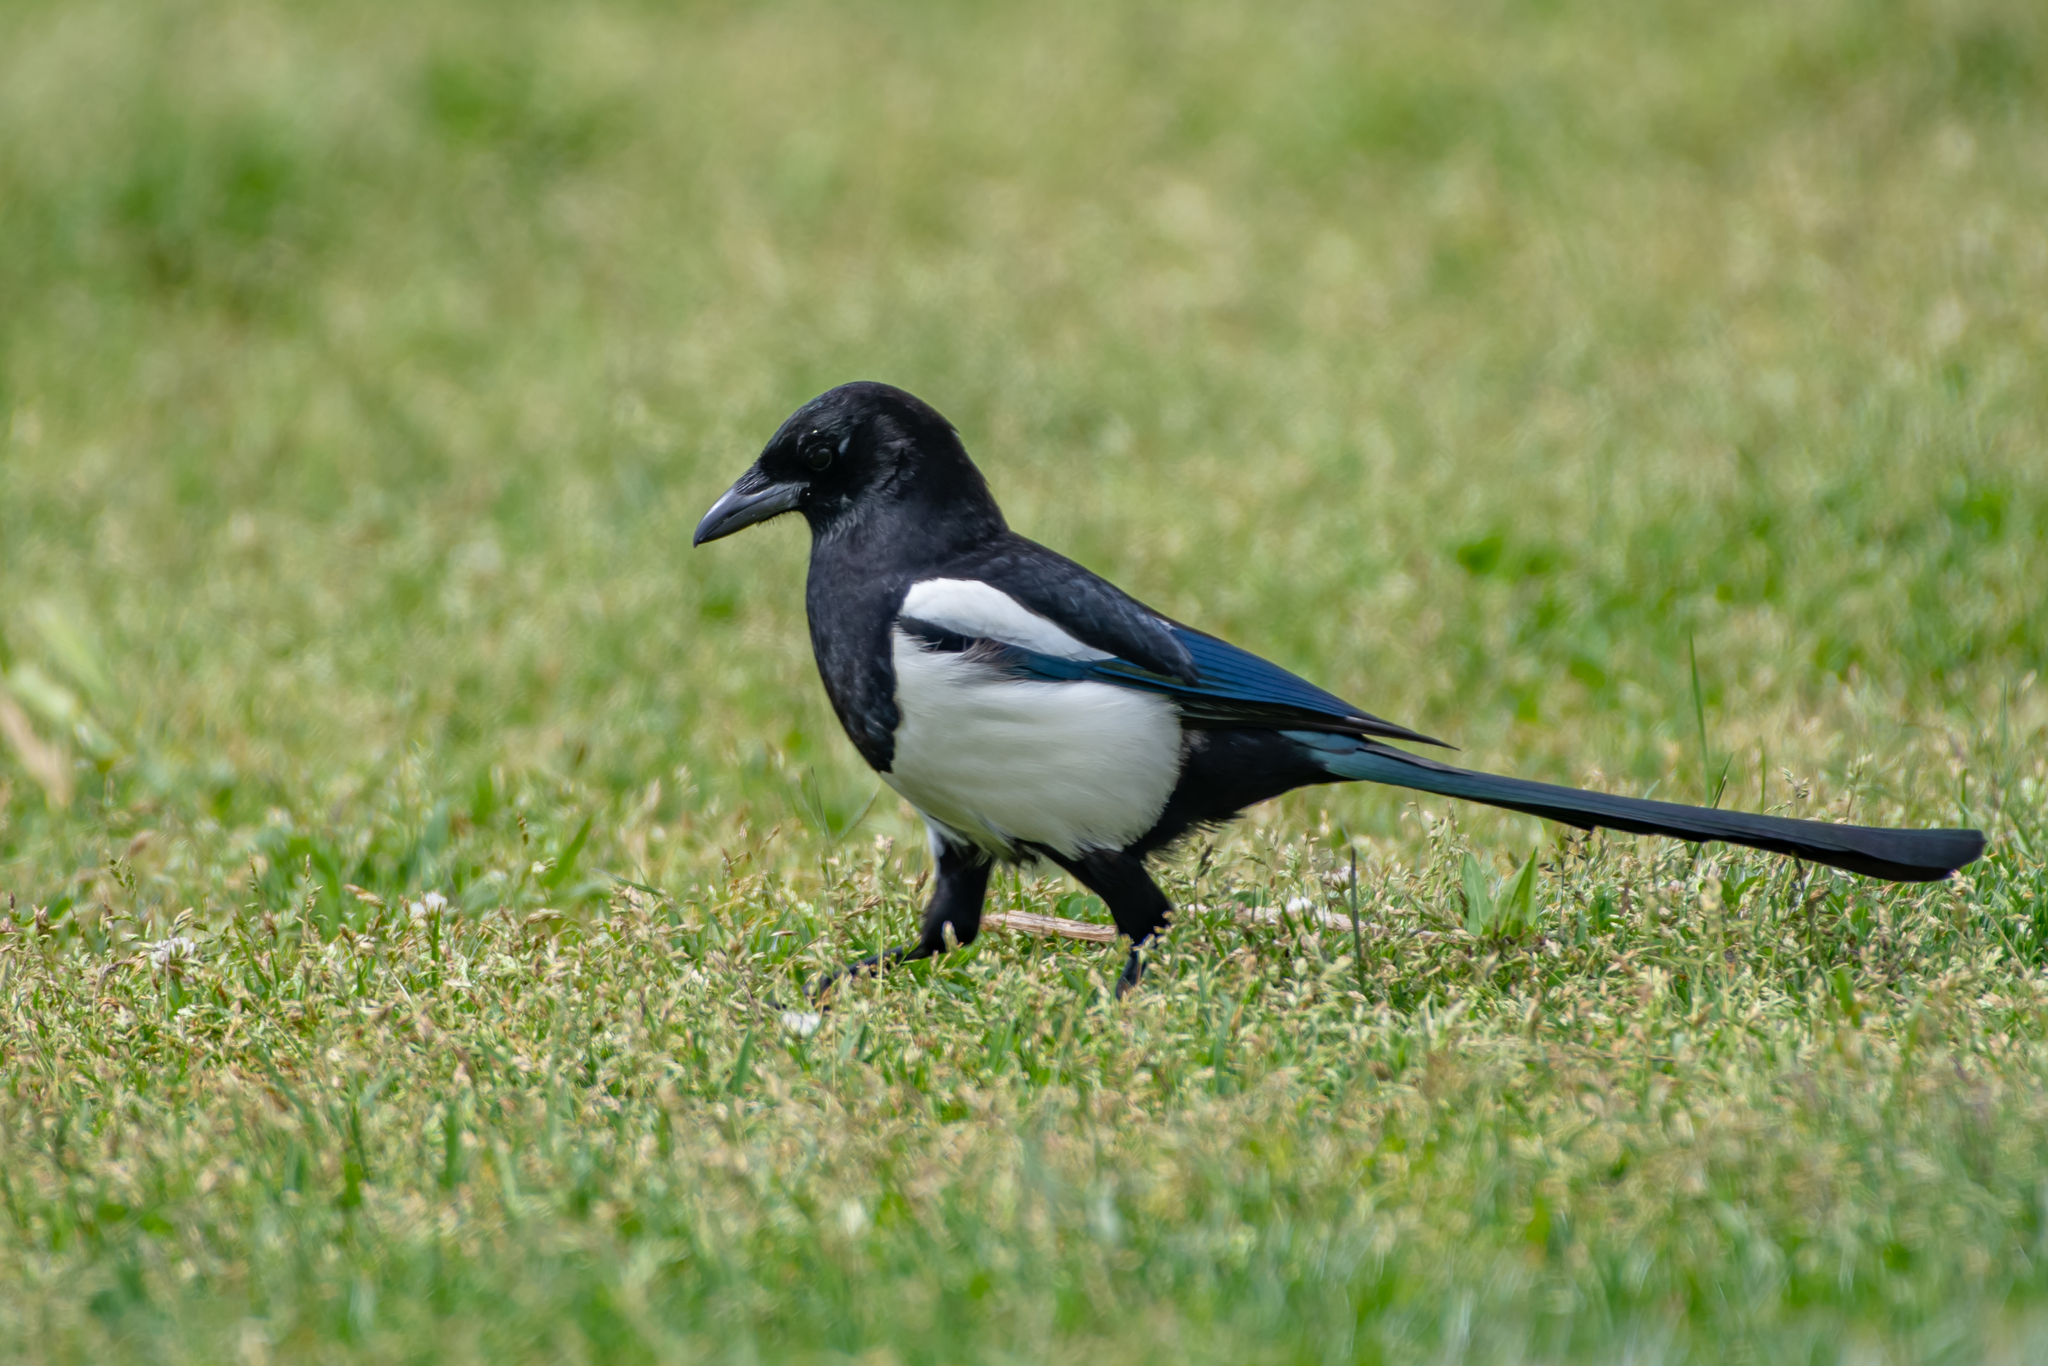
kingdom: Animalia
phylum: Chordata
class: Aves
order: Passeriformes
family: Corvidae
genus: Pica
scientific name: Pica pica
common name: Eurasian magpie
